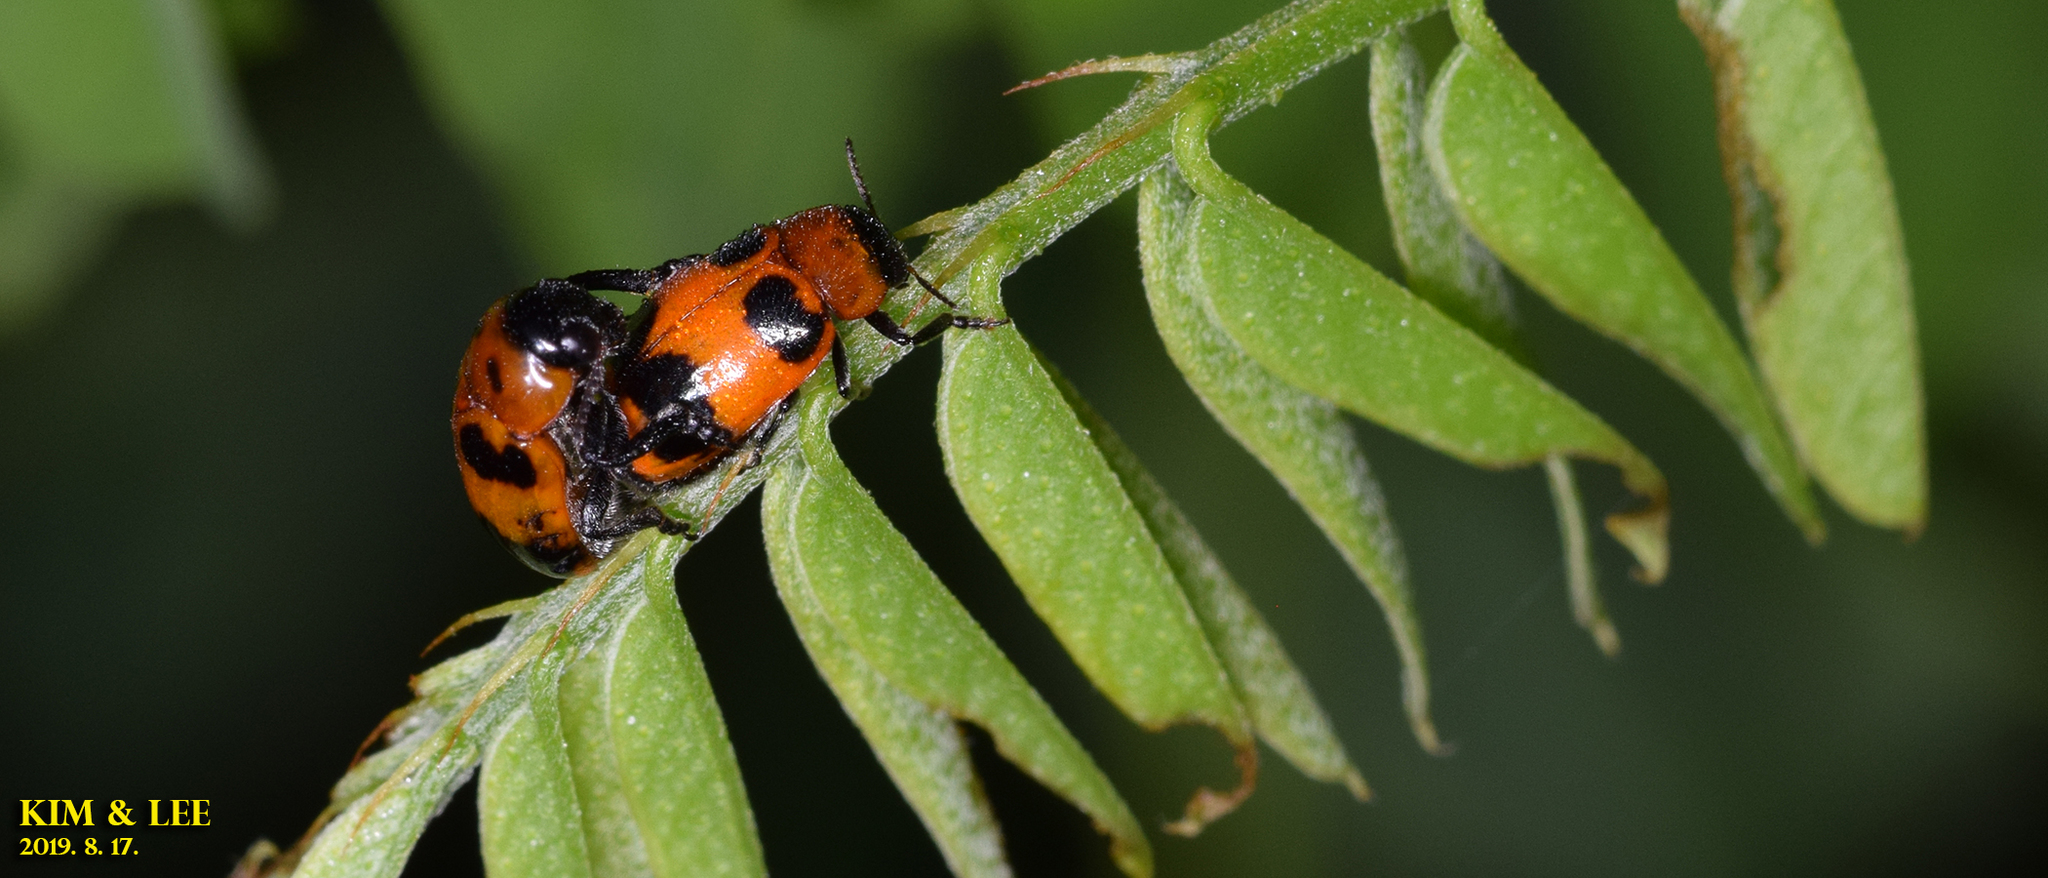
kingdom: Animalia
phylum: Arthropoda
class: Insecta
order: Coleoptera
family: Chrysomelidae
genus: Physosmaragdina
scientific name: Physosmaragdina nigrifrons
